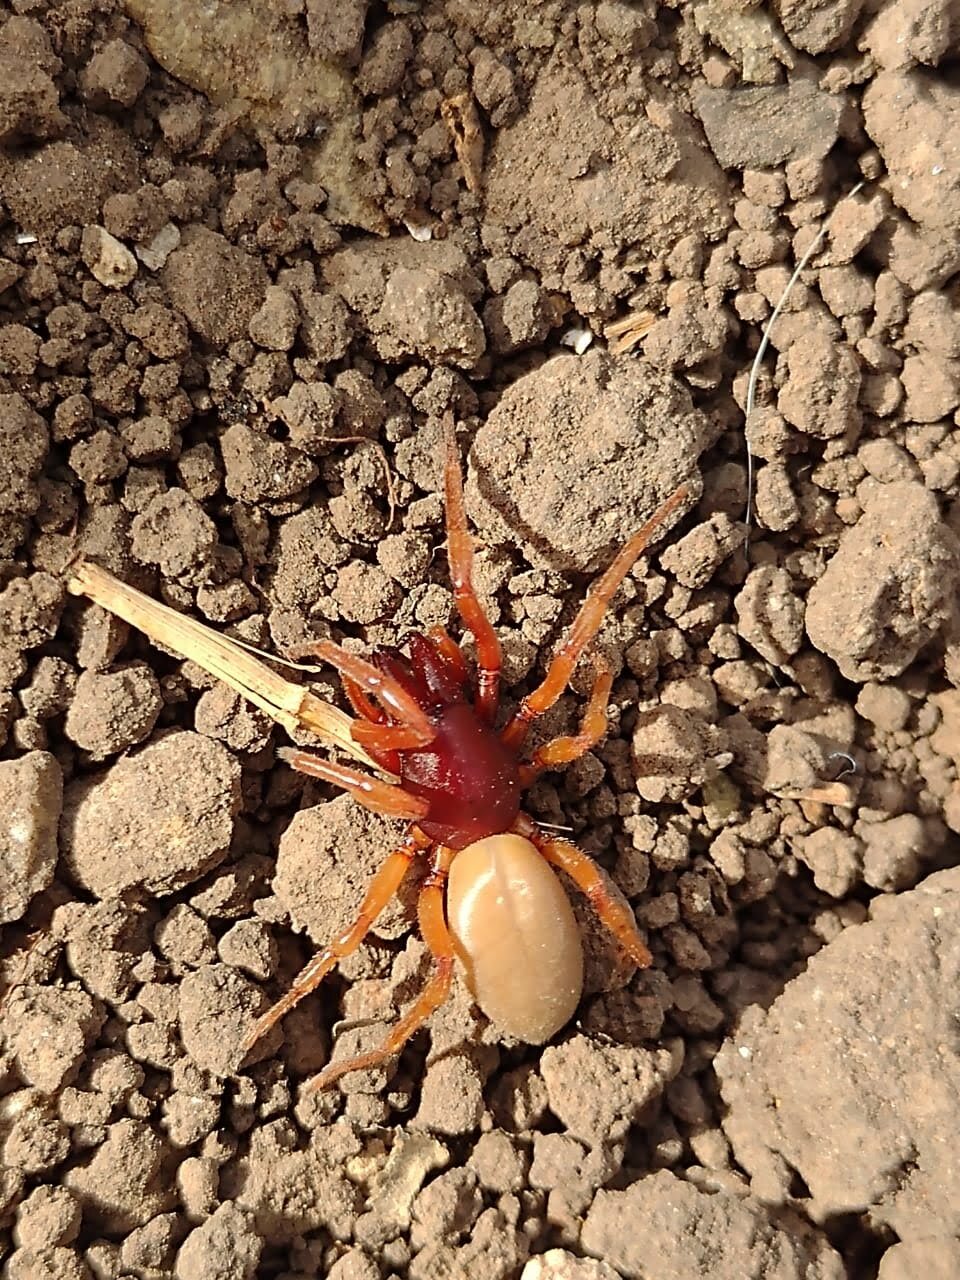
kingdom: Animalia
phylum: Arthropoda
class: Arachnida
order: Araneae
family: Dysderidae
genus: Dysdera
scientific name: Dysdera crocata
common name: Woodlouse spider
